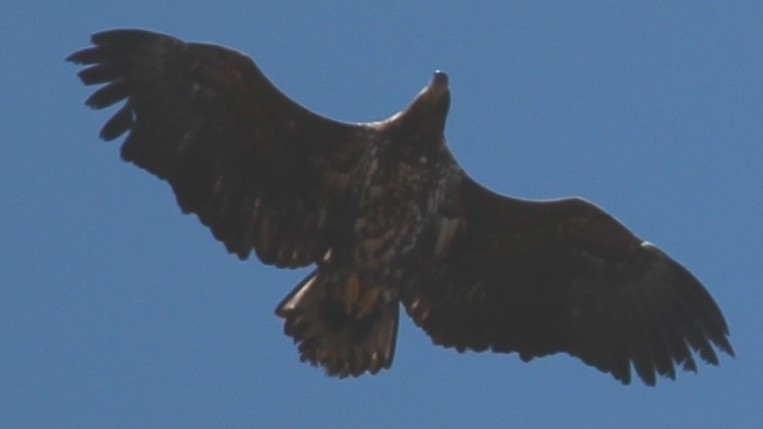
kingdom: Animalia
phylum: Chordata
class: Aves
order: Accipitriformes
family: Accipitridae
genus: Haliaeetus
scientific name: Haliaeetus albicilla
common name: White-tailed eagle
